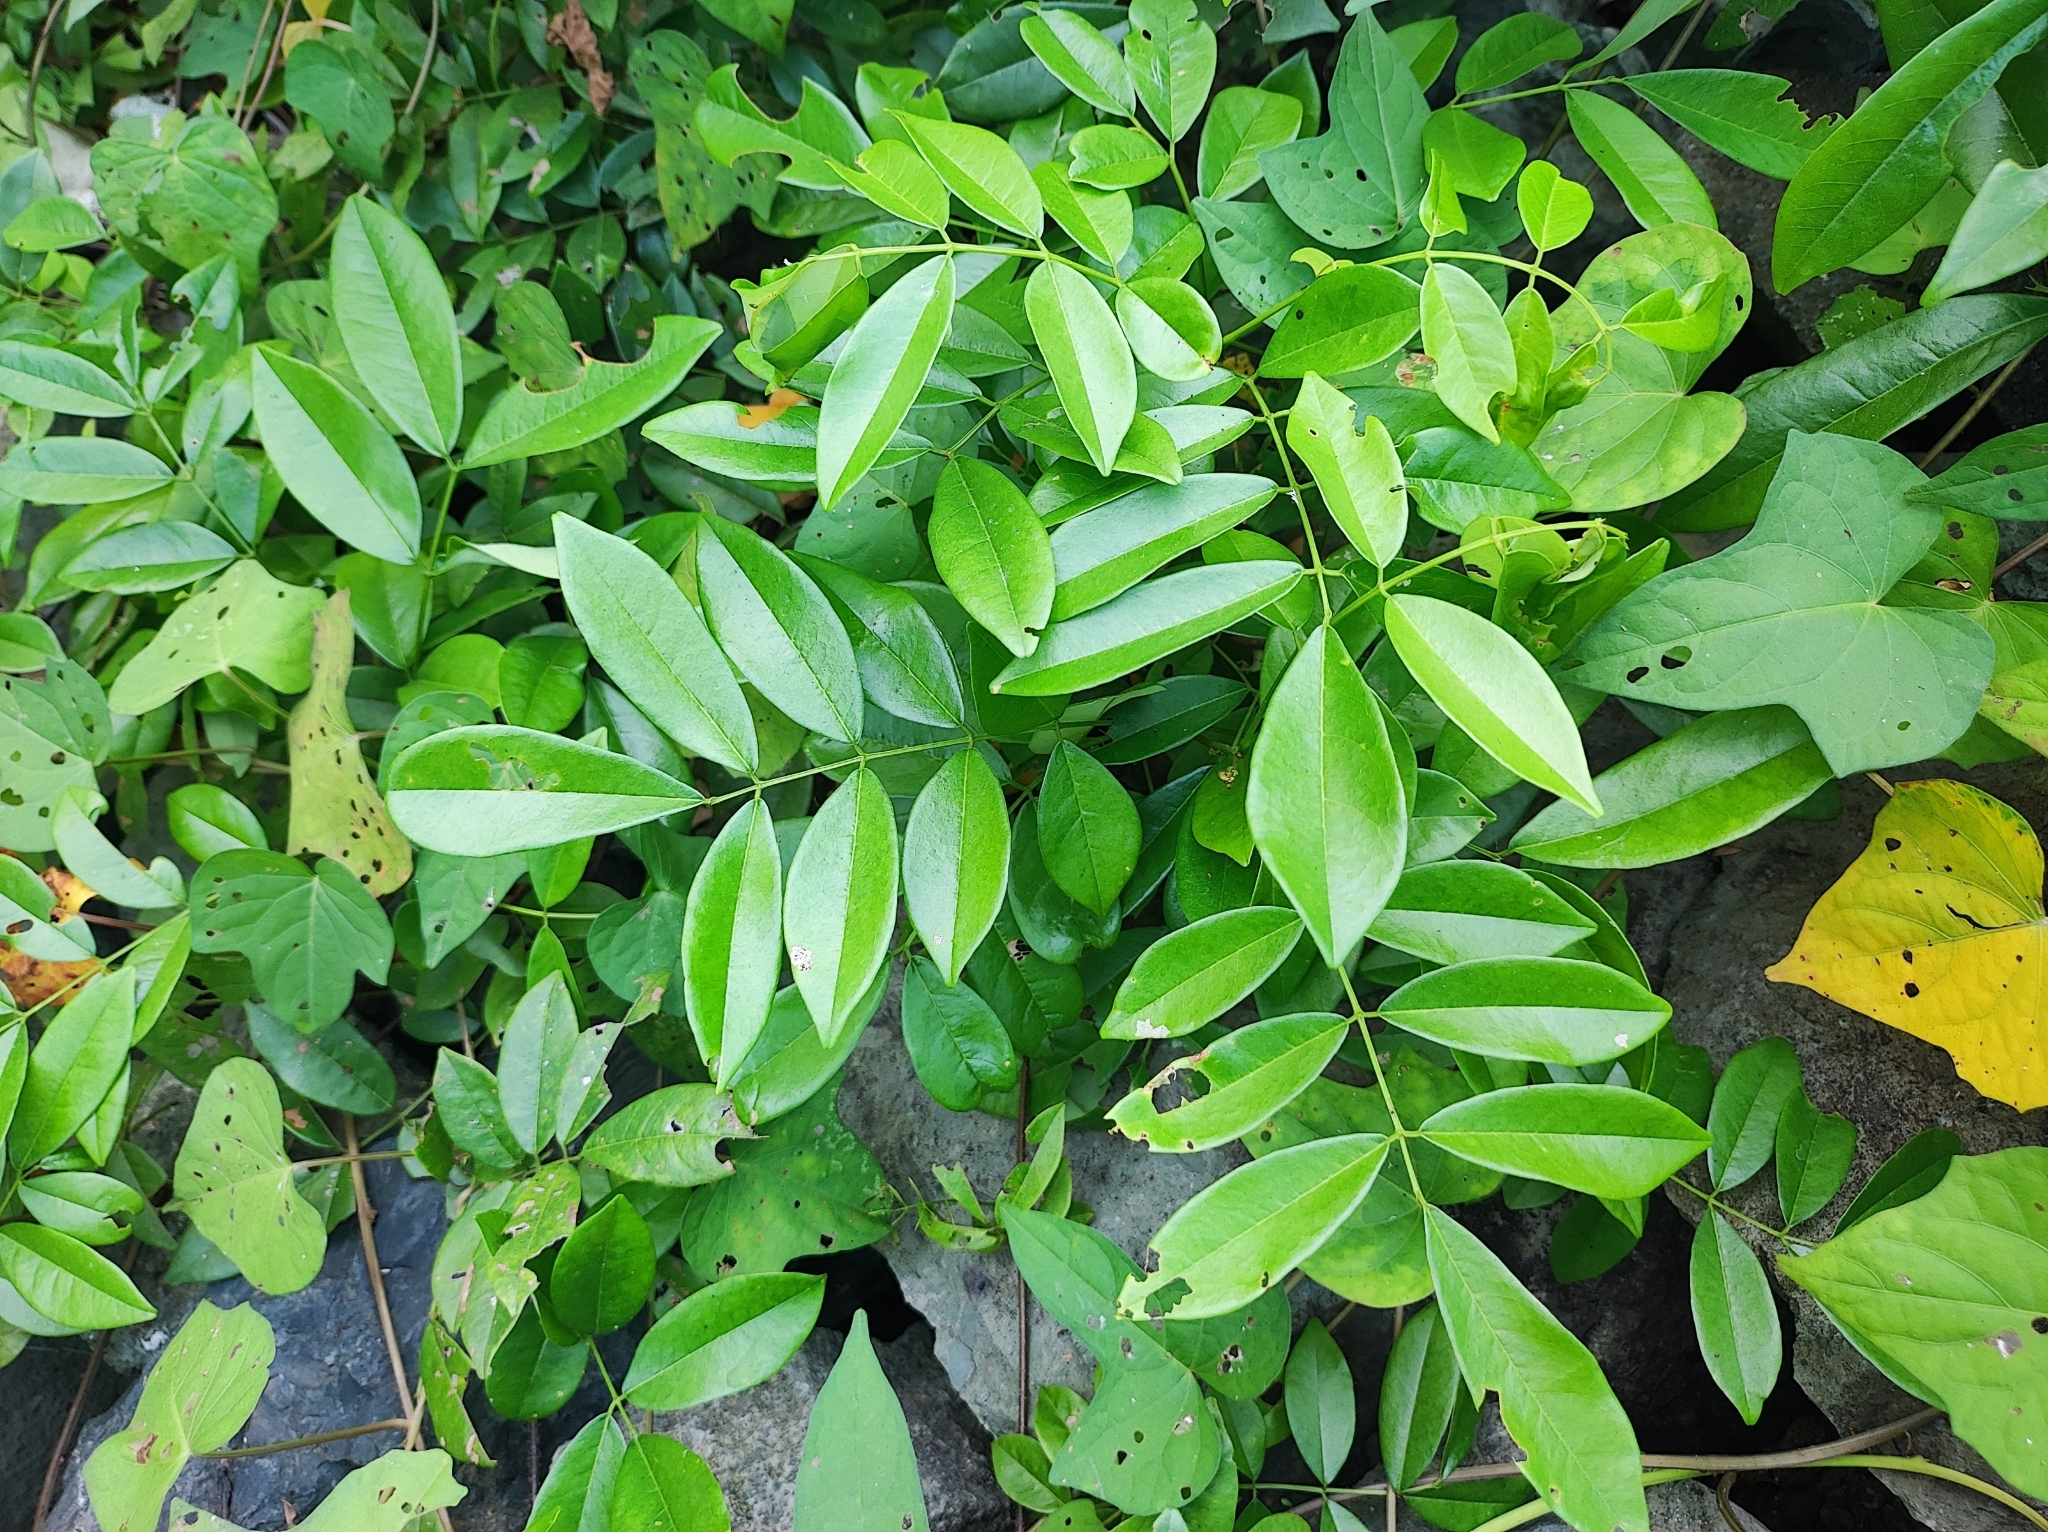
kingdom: Plantae
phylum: Tracheophyta
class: Magnoliopsida
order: Fabales
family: Fabaceae
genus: Brachypterum
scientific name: Brachypterum scandens
